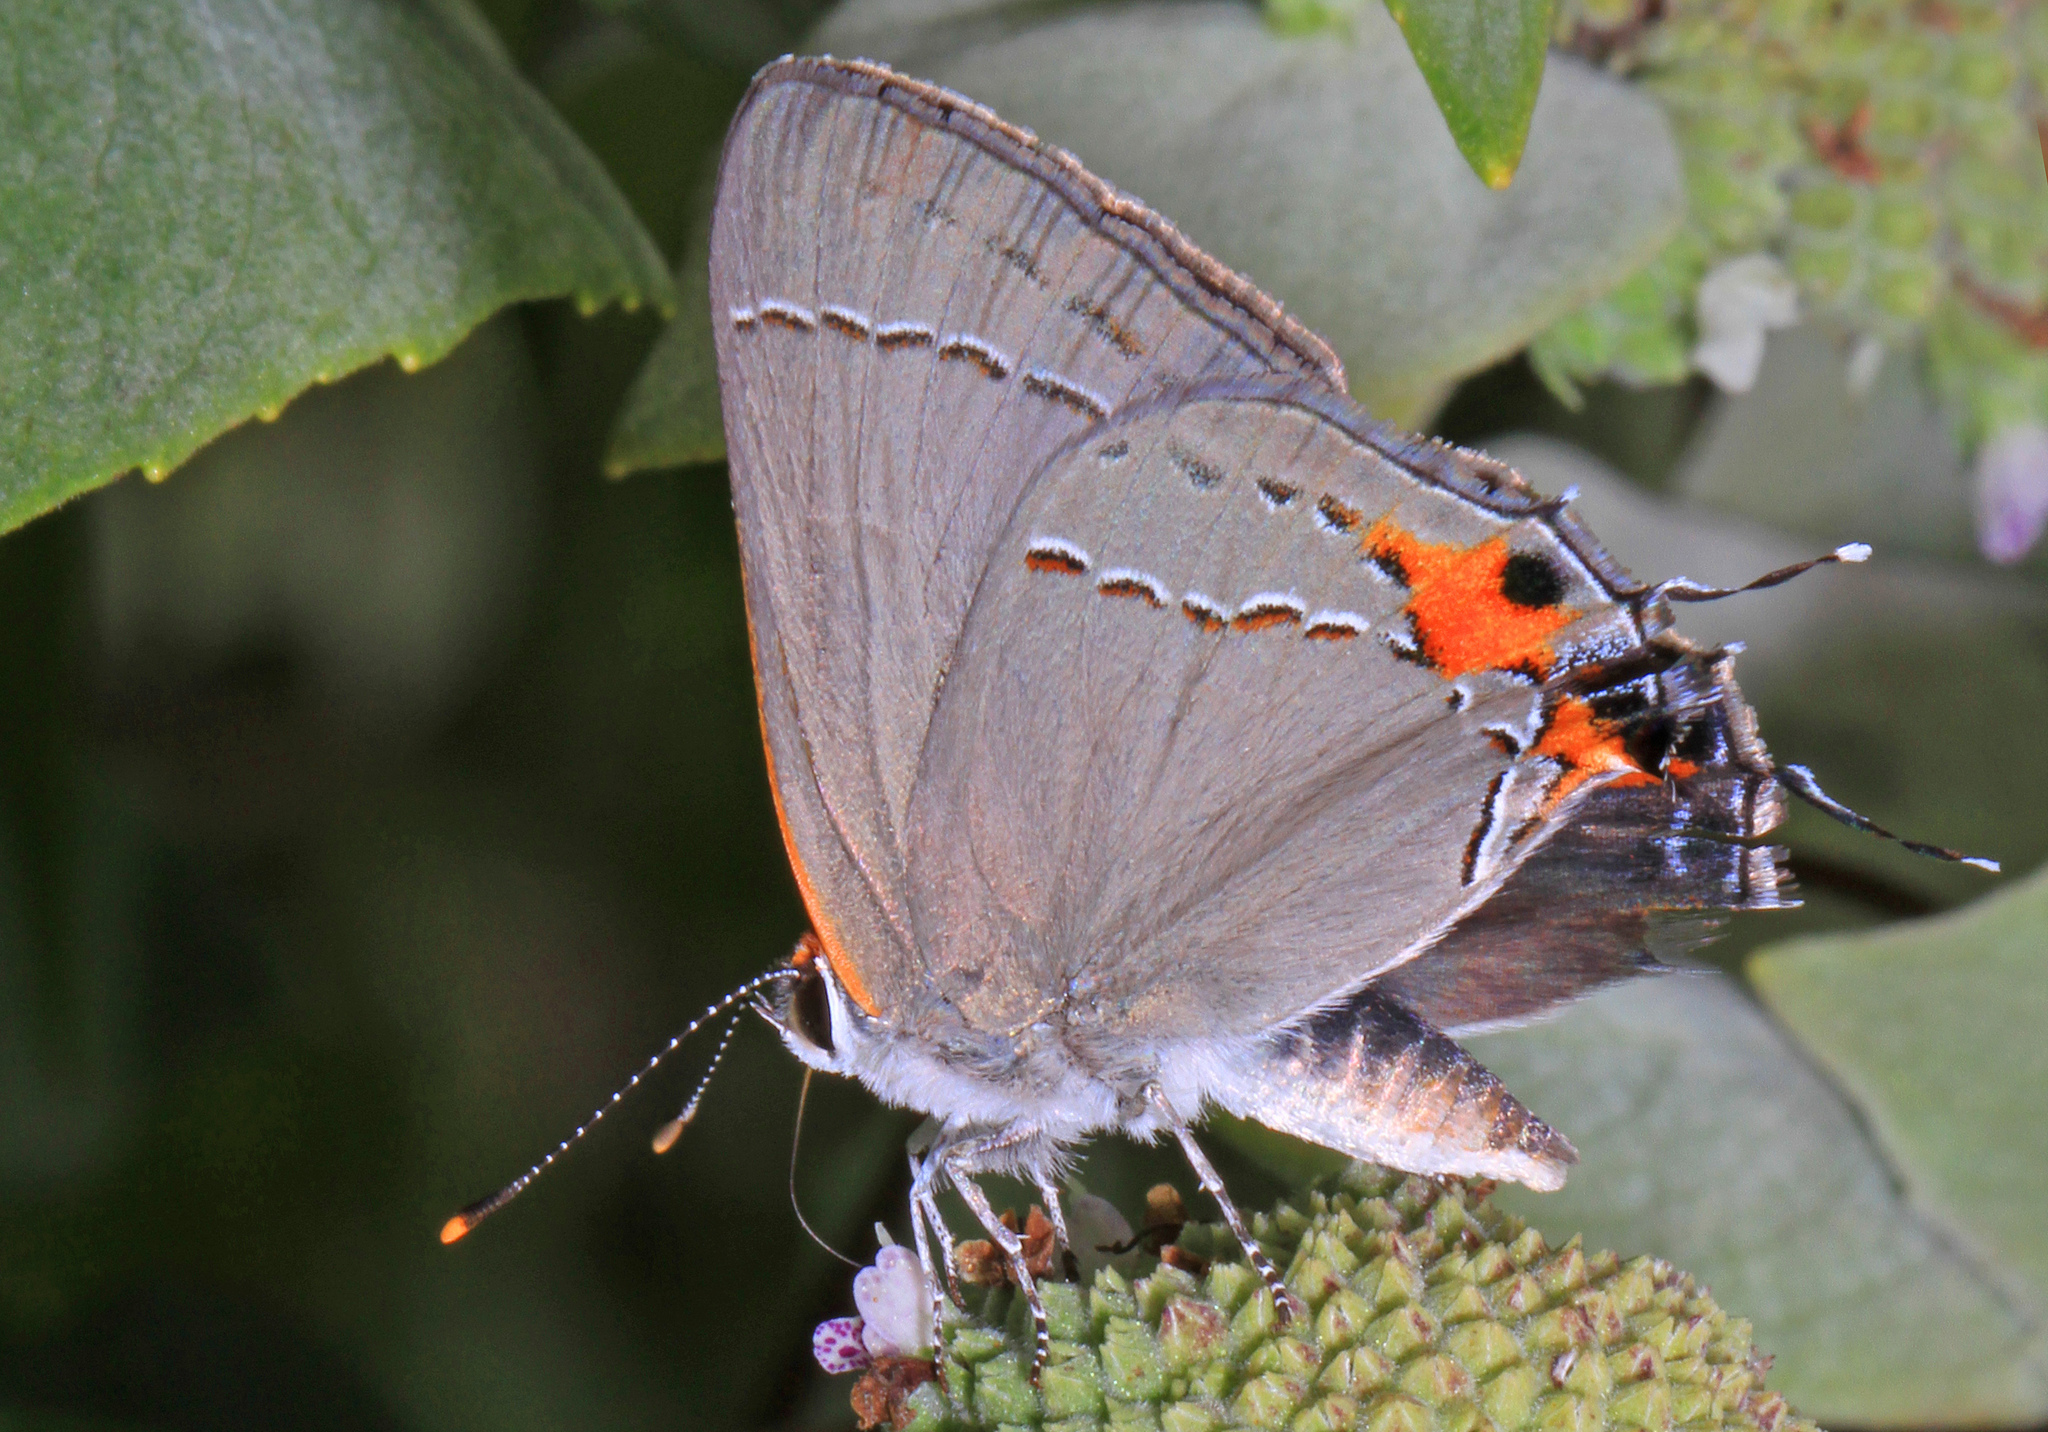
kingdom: Animalia
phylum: Arthropoda
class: Insecta
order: Lepidoptera
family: Lycaenidae
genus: Strymon
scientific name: Strymon melinus
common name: Gray hairstreak
